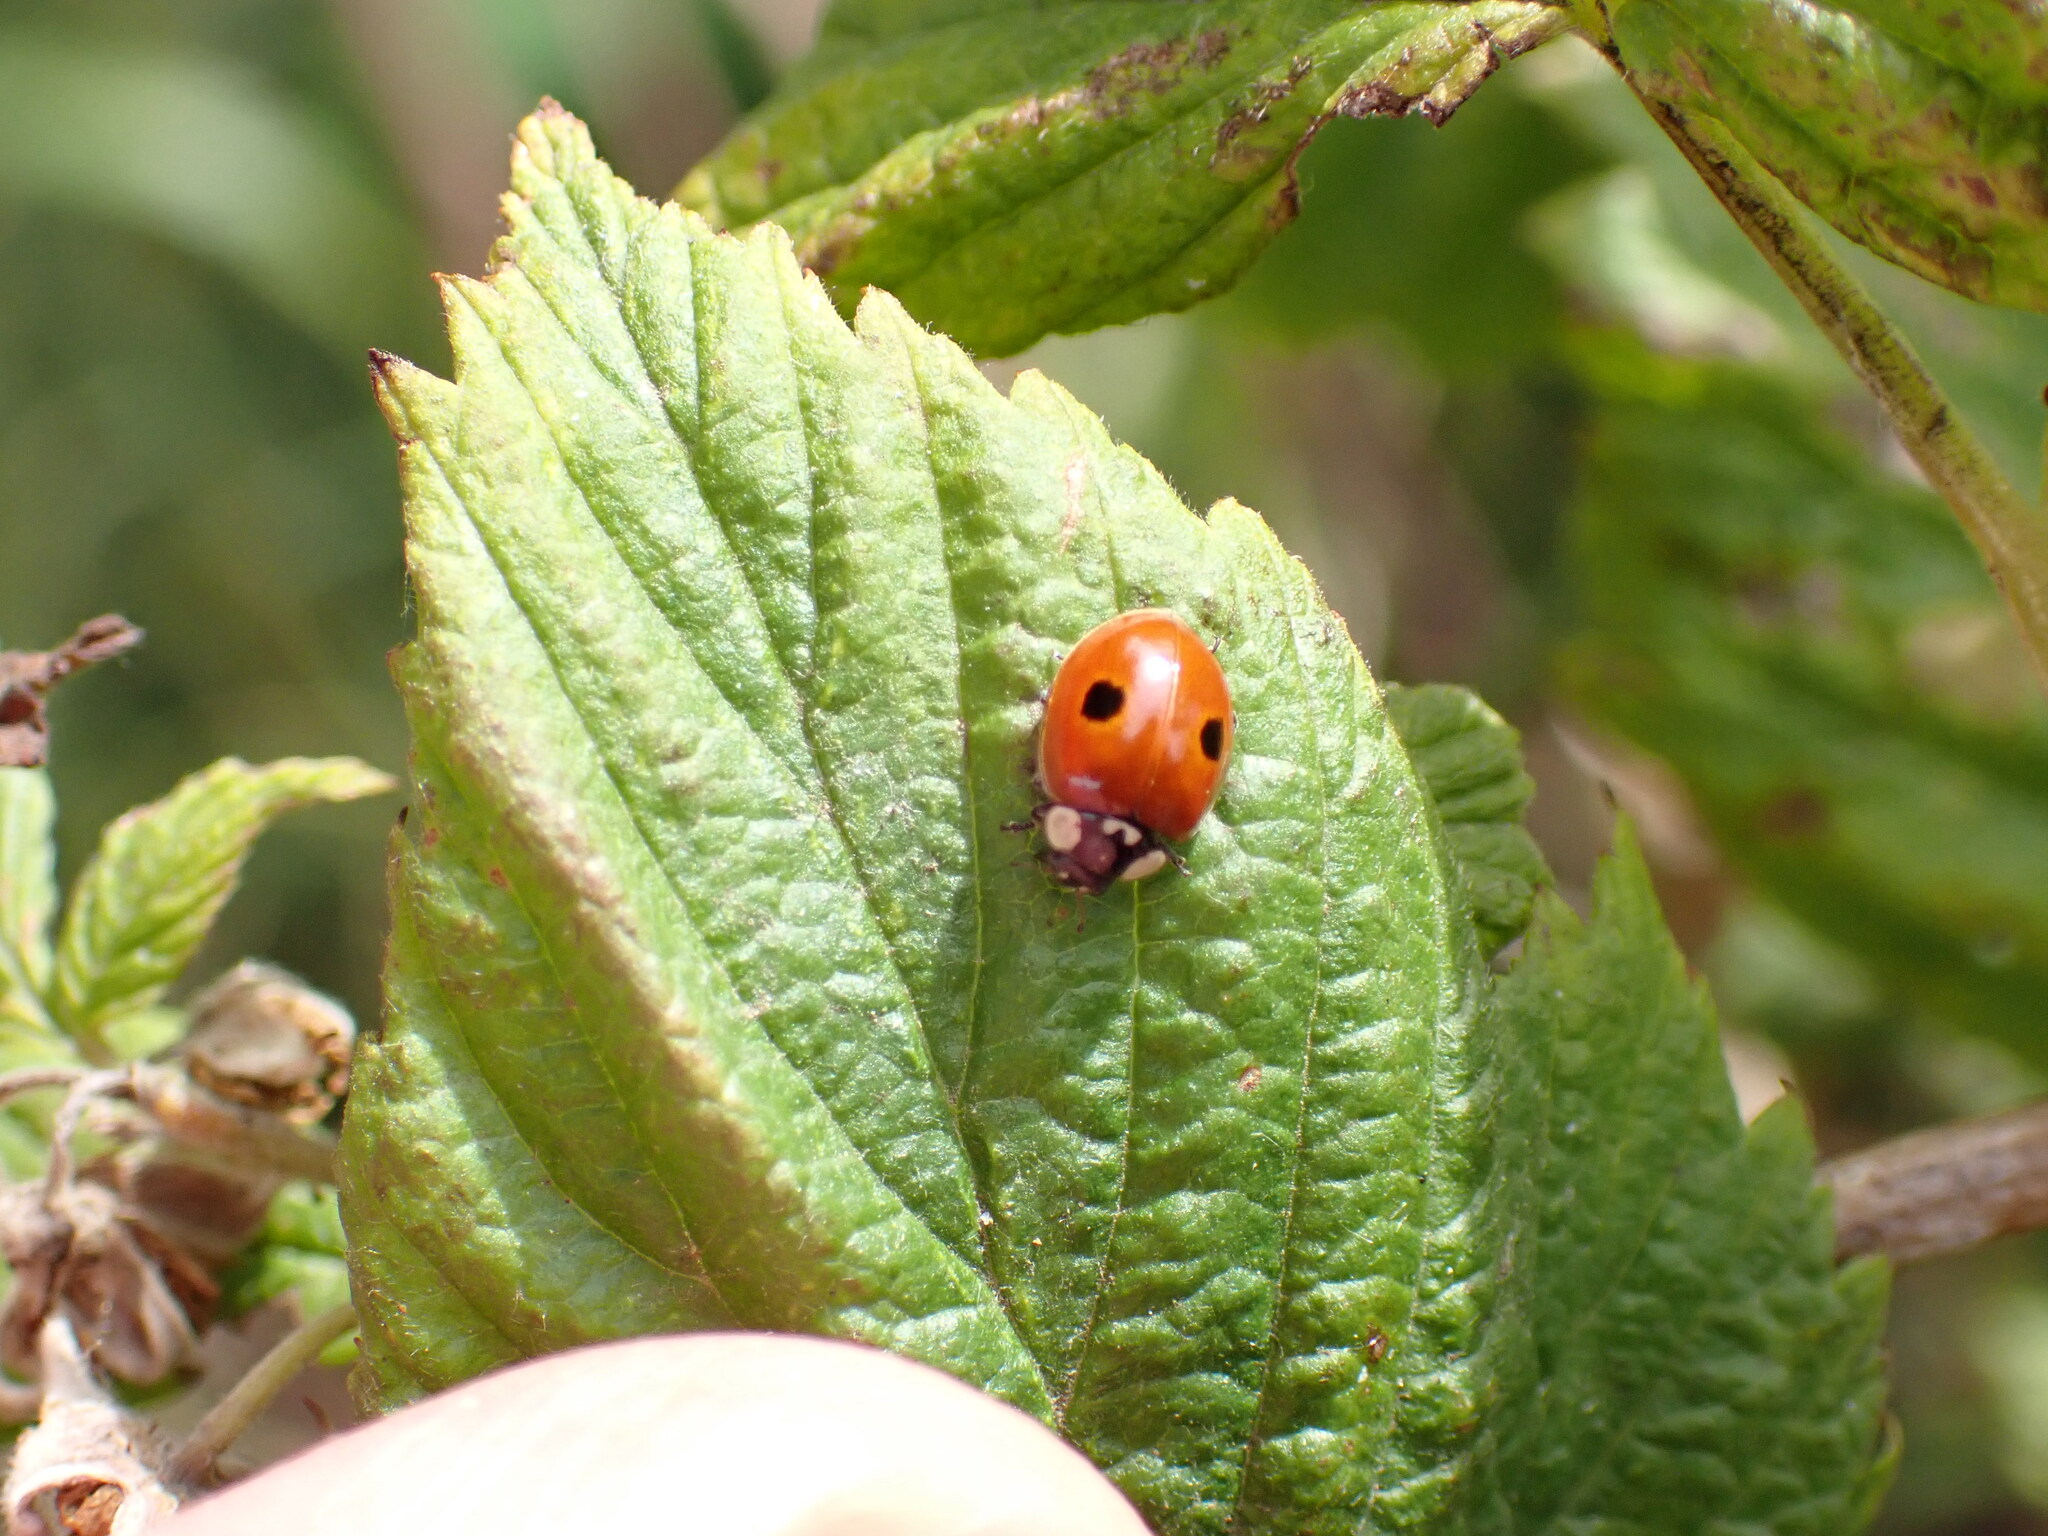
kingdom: Animalia
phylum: Arthropoda
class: Insecta
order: Coleoptera
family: Coccinellidae
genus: Adalia
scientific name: Adalia bipunctata
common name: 2-spot ladybird
